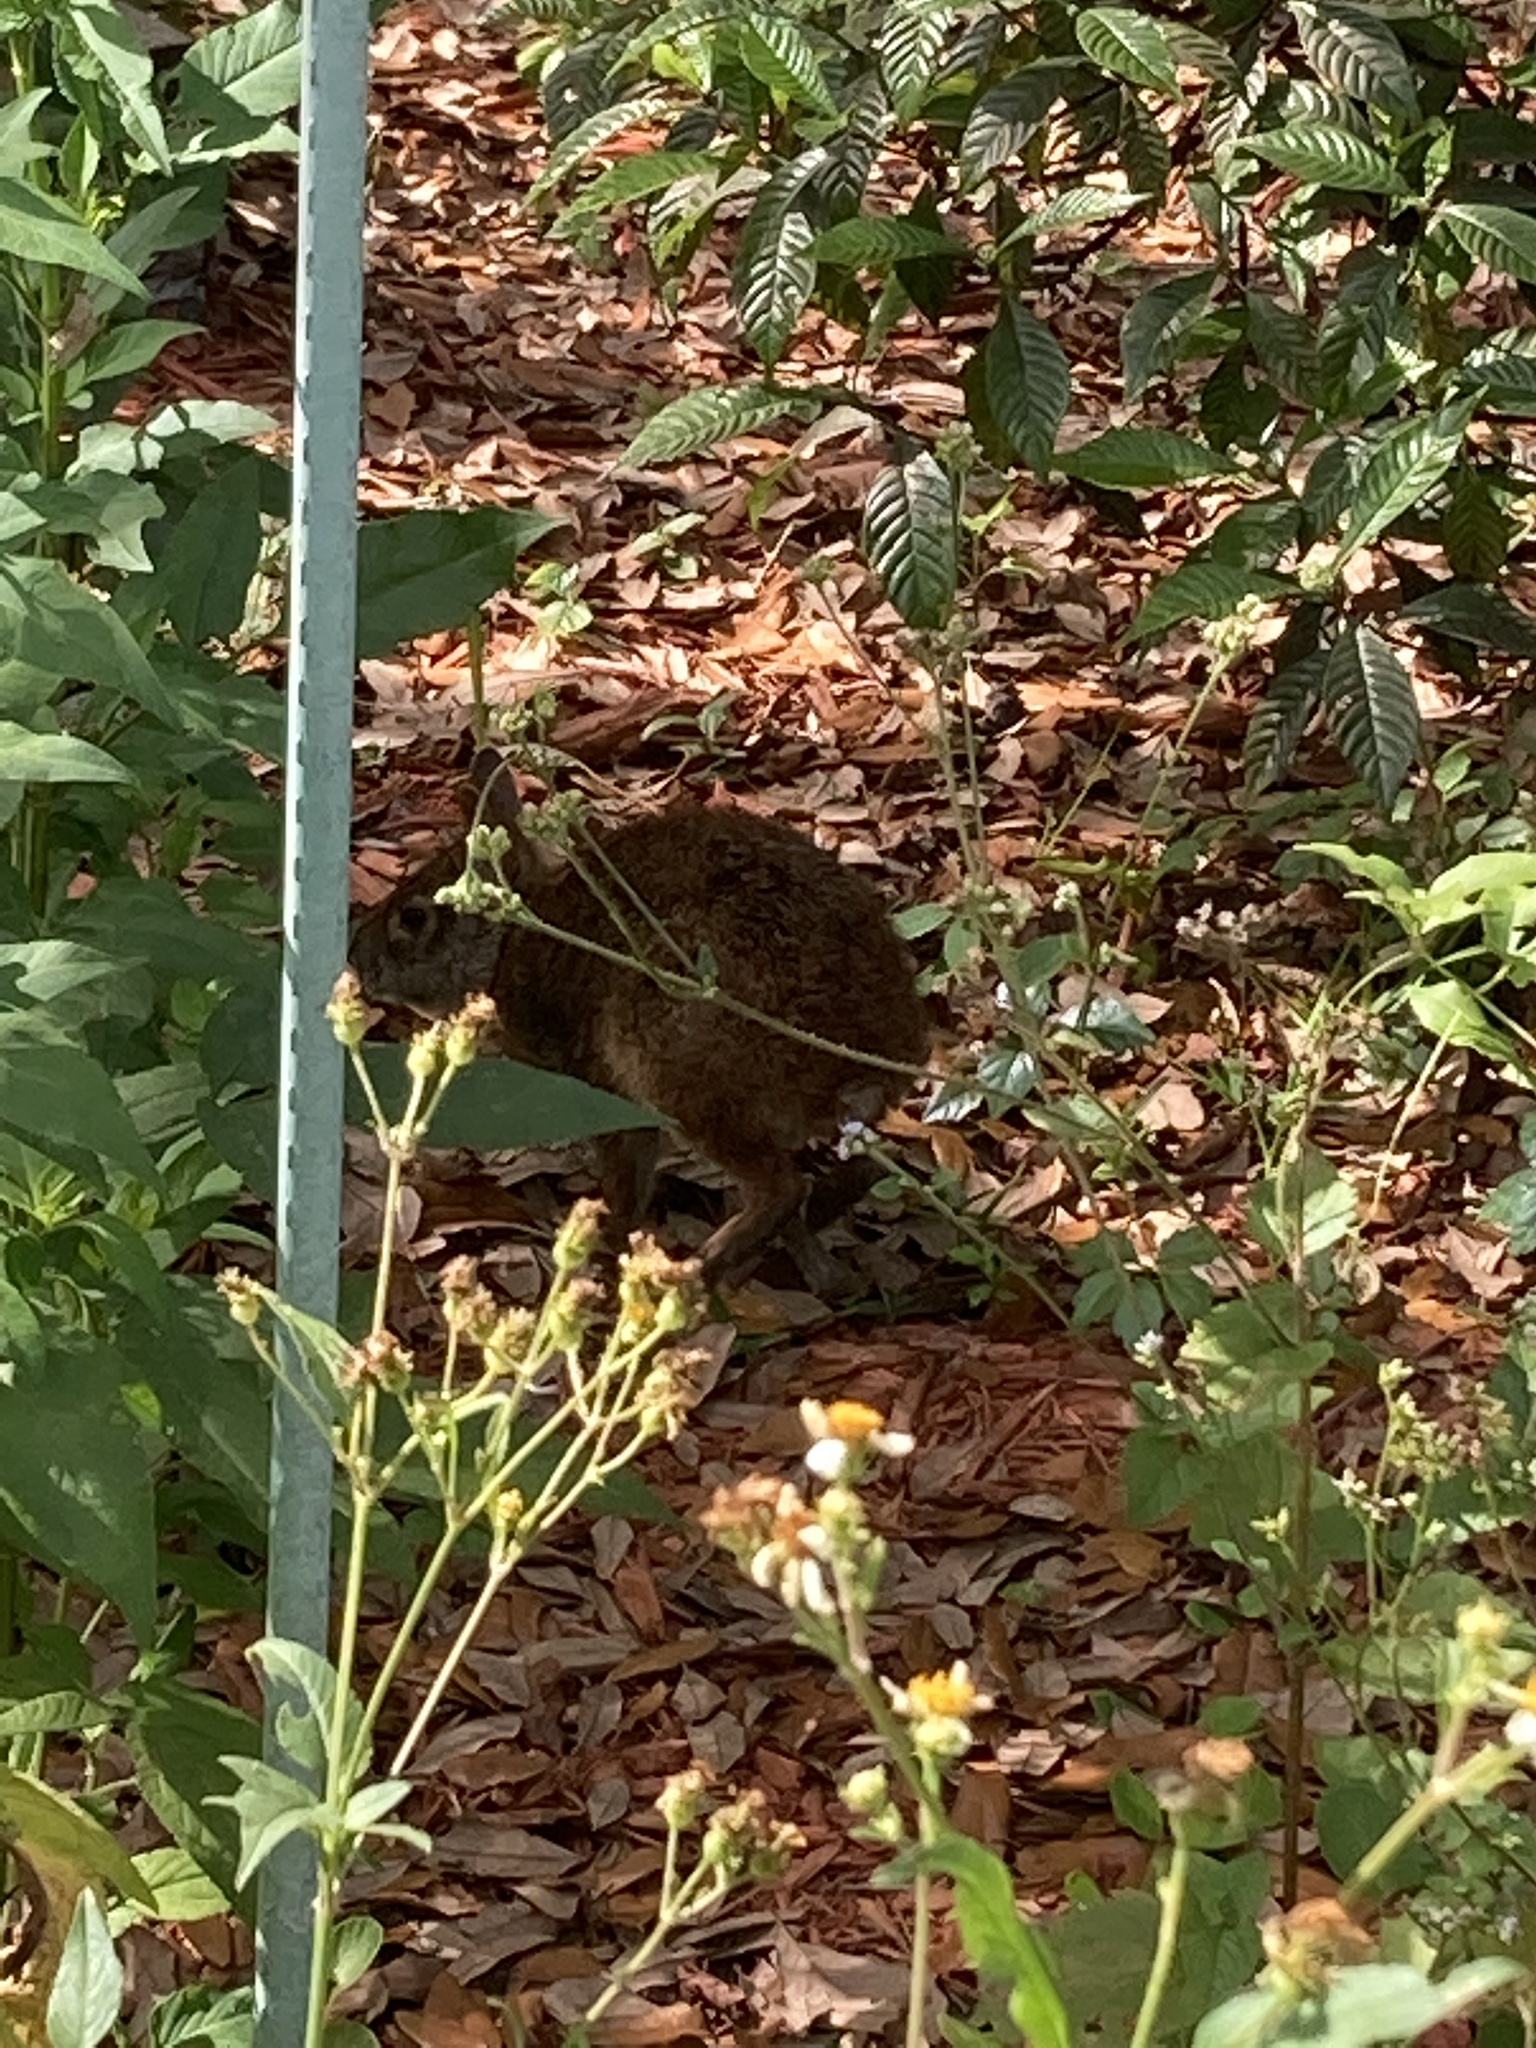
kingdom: Animalia
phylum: Chordata
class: Mammalia
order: Lagomorpha
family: Leporidae
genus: Sylvilagus
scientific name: Sylvilagus palustris
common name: Marsh rabbit
